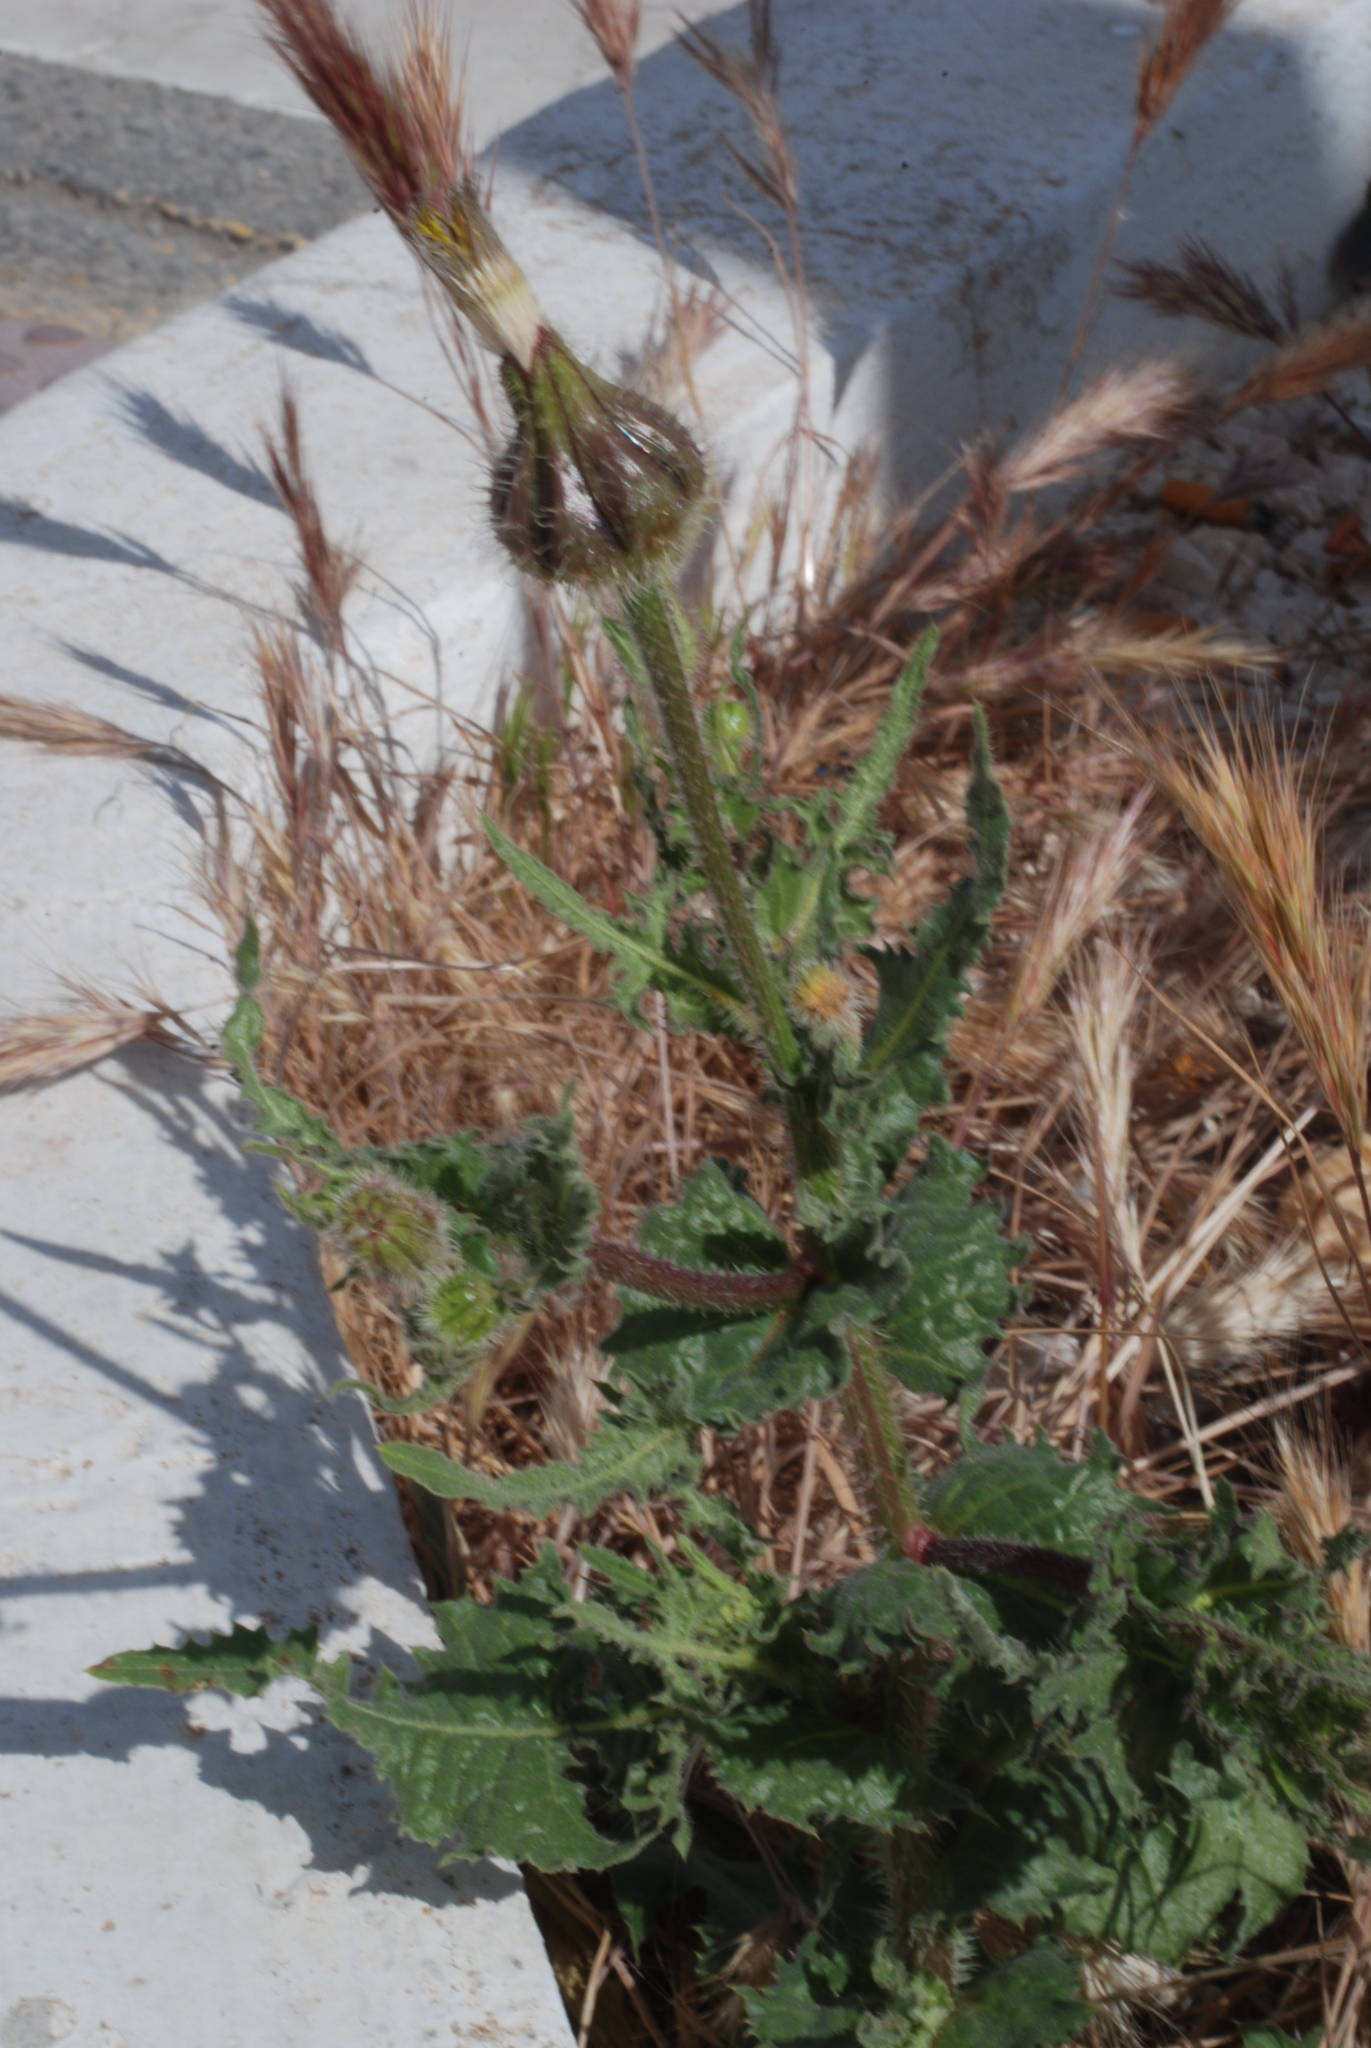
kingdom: Plantae
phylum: Tracheophyta
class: Magnoliopsida
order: Asterales
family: Asteraceae
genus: Urospermum
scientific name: Urospermum picroides
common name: False hawkbit
